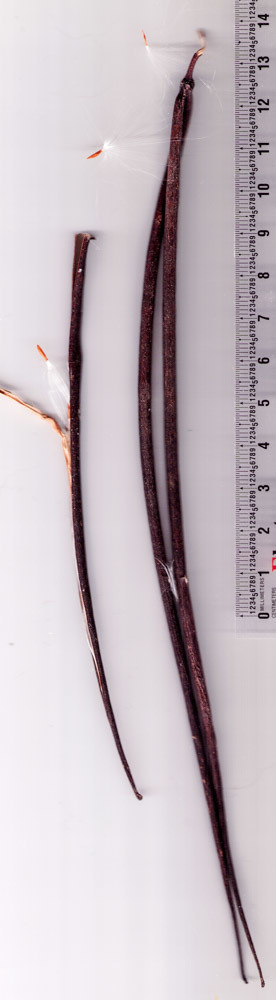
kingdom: Plantae
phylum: Tracheophyta
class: Magnoliopsida
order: Gentianales
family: Apocynaceae
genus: Apocynum
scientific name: Apocynum cannabinum
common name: Hemp dogbane
